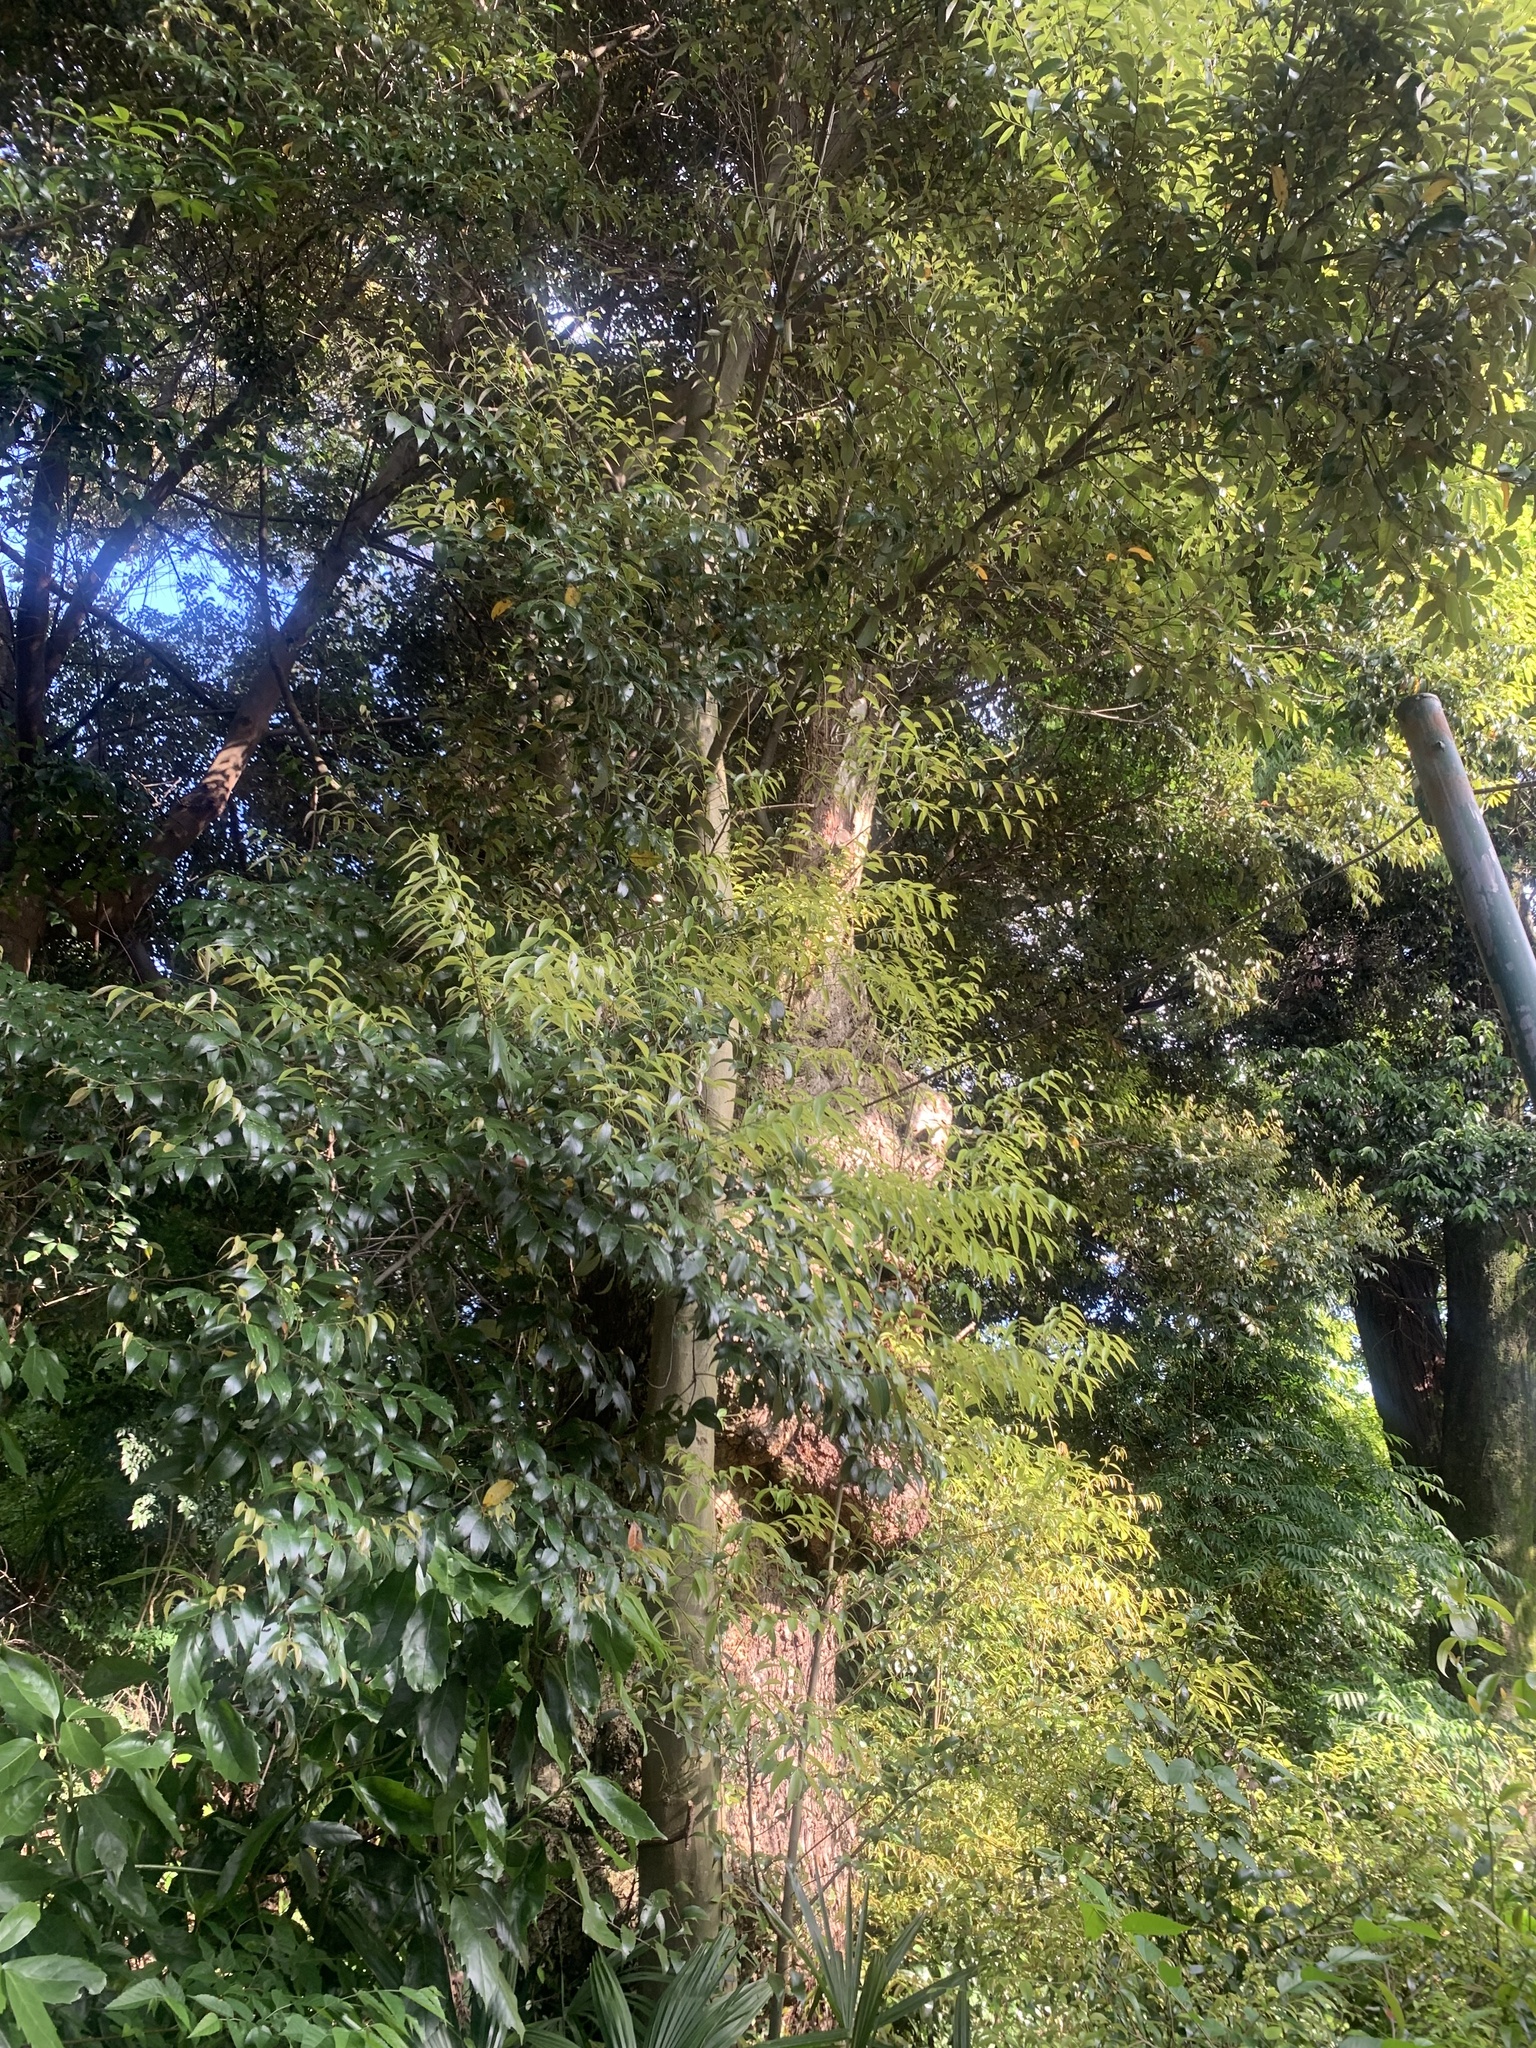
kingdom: Plantae
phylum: Tracheophyta
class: Magnoliopsida
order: Fagales
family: Fagaceae
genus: Castanopsis
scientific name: Castanopsis sieboldii
